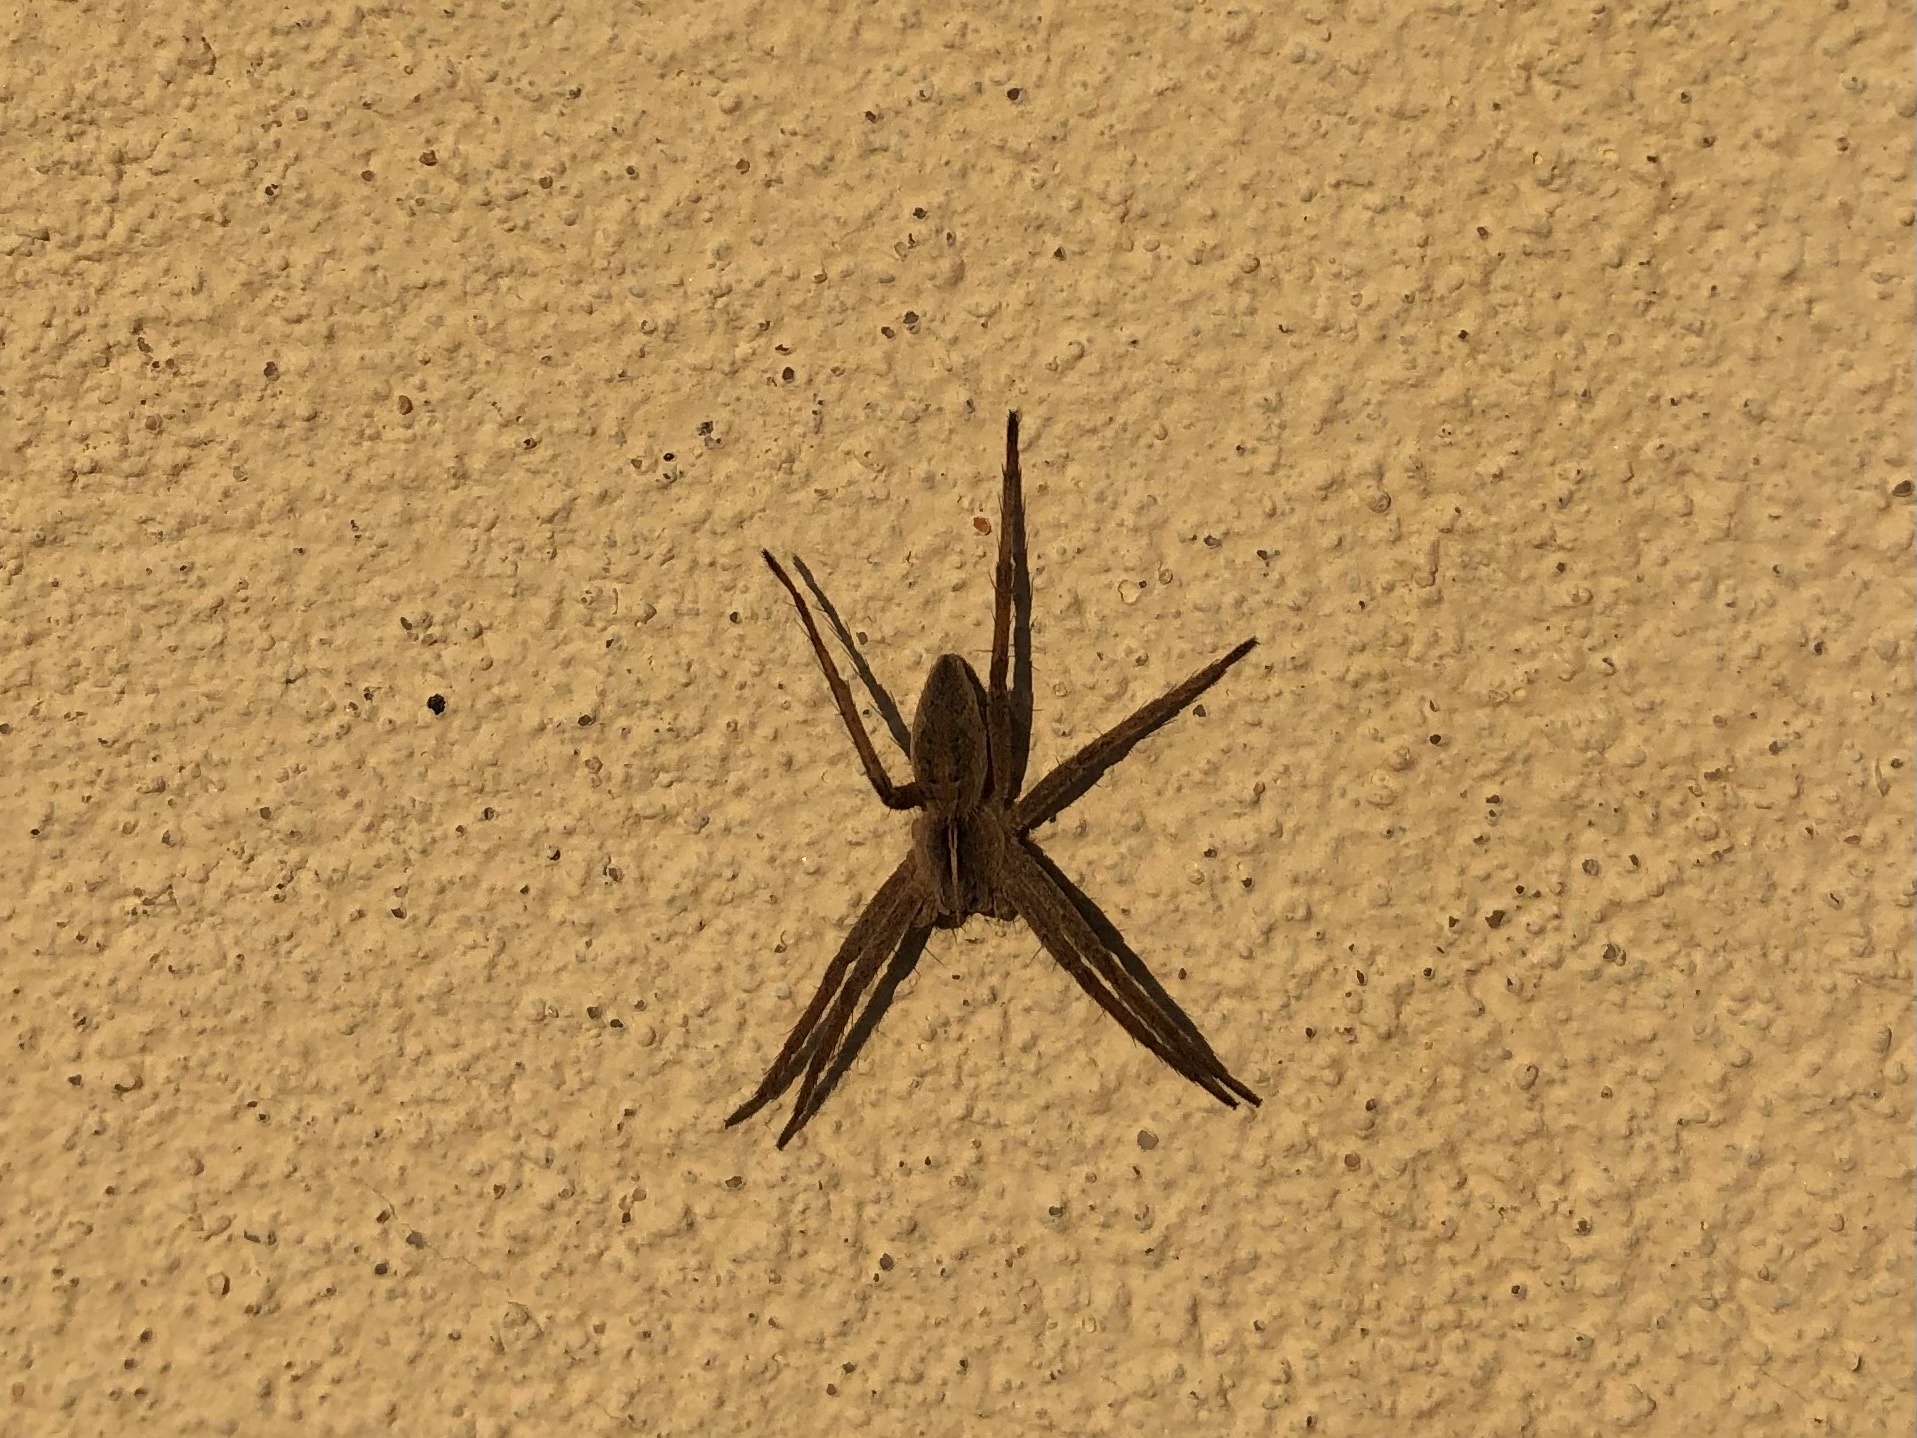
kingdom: Animalia
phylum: Arthropoda
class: Arachnida
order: Araneae
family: Pisauridae
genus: Pisaura
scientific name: Pisaura mirabilis
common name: Tent spider
